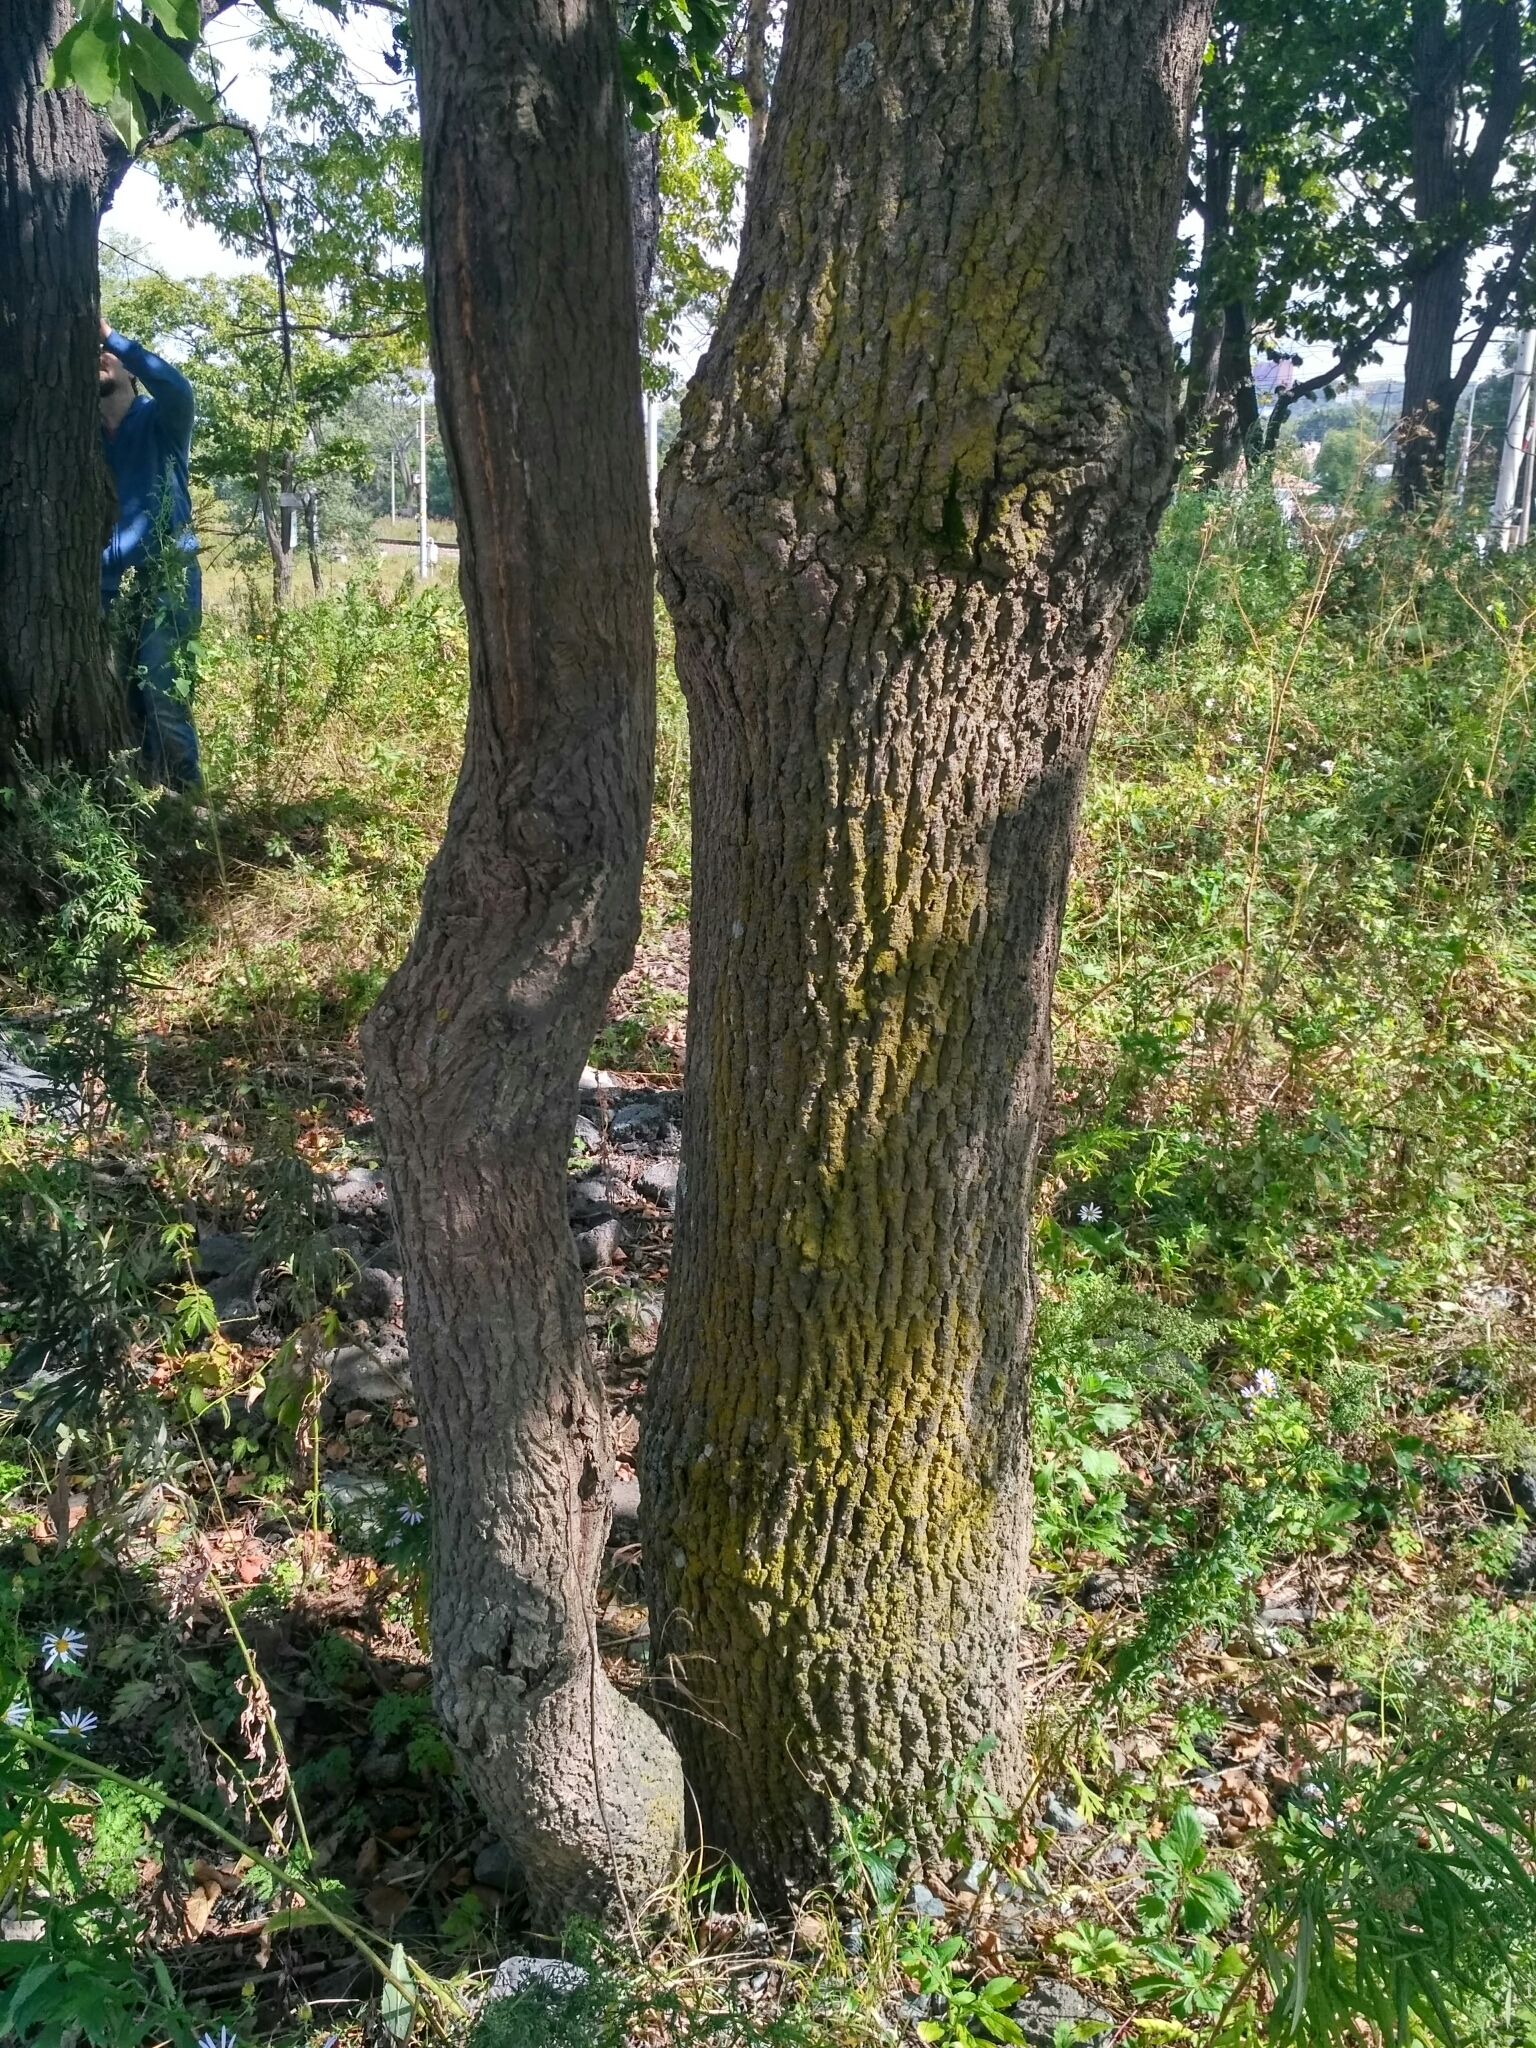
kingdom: Plantae
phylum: Tracheophyta
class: Magnoliopsida
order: Lamiales
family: Oleaceae
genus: Fraxinus
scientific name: Fraxinus mandshurica
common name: Manchurian ash
